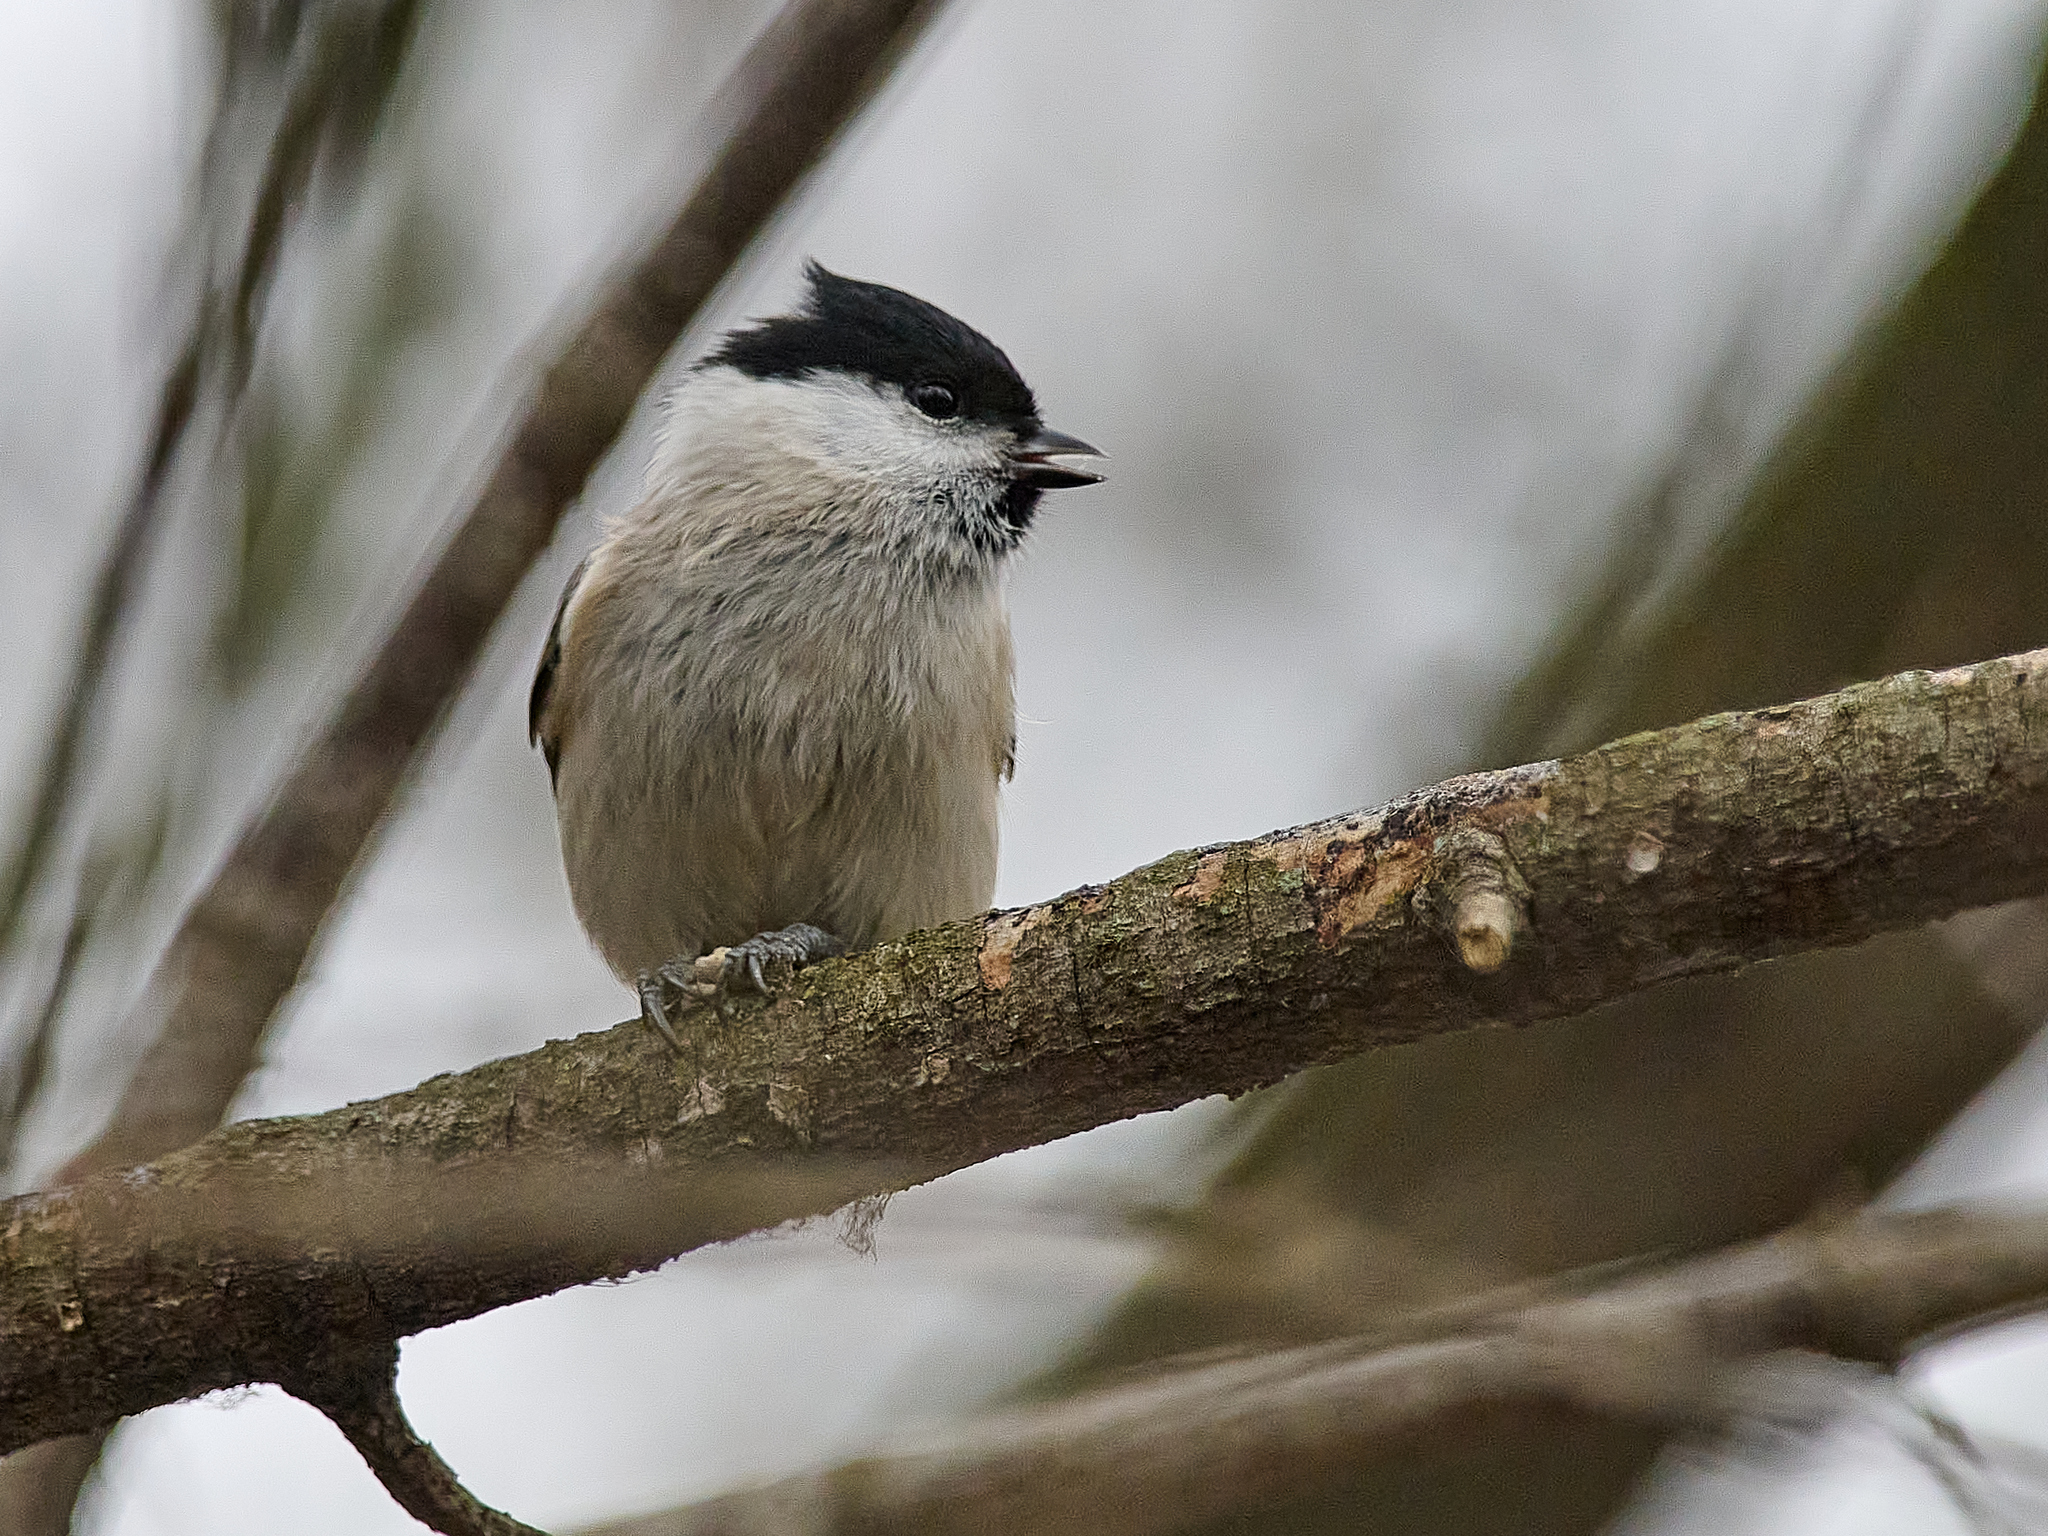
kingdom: Animalia
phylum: Chordata
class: Aves
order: Passeriformes
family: Paridae
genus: Poecile
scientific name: Poecile palustris
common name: Marsh tit
